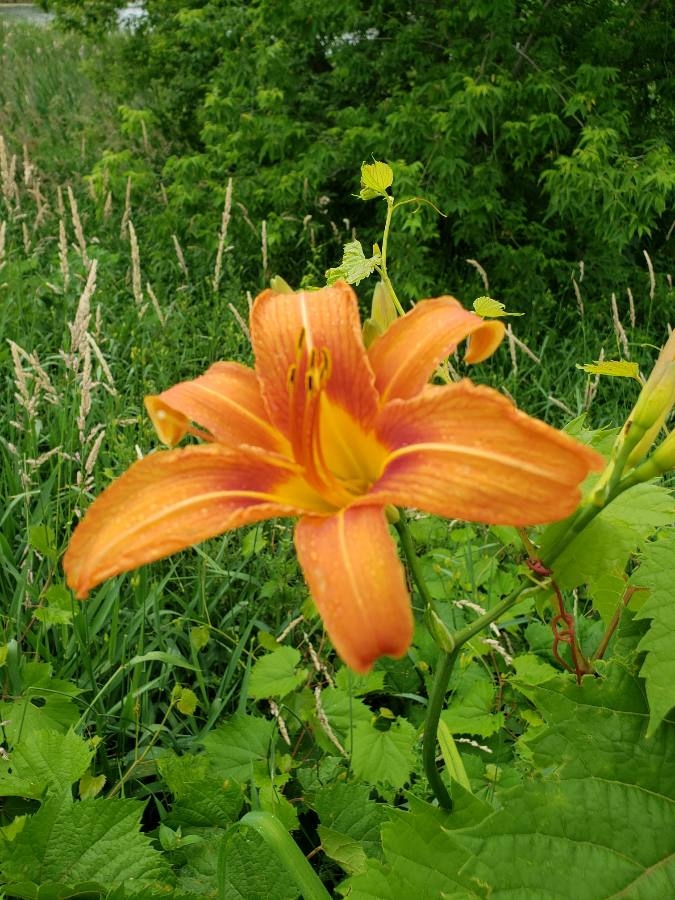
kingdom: Plantae
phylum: Tracheophyta
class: Liliopsida
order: Asparagales
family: Asphodelaceae
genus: Hemerocallis
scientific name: Hemerocallis fulva
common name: Orange day-lily
